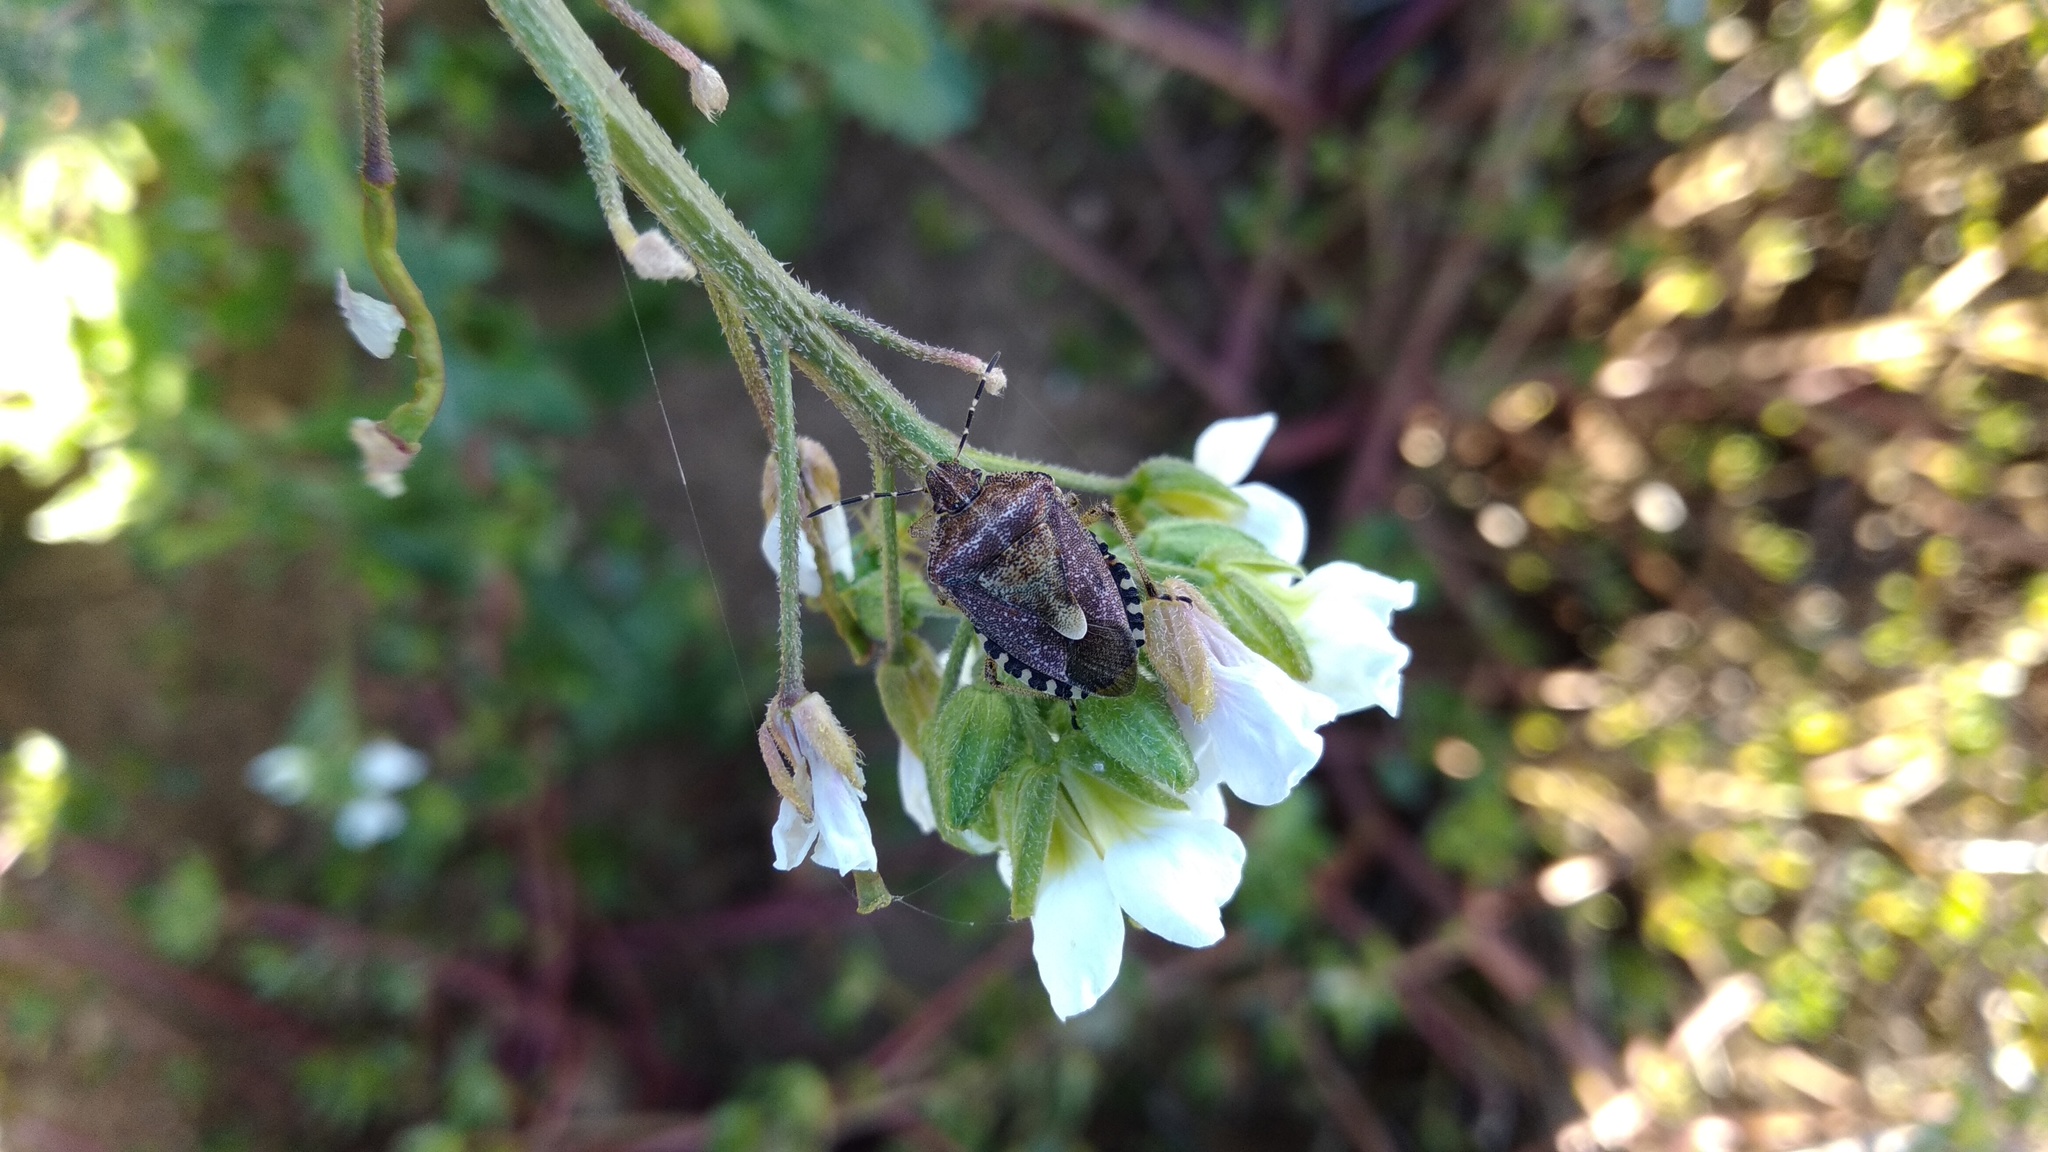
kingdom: Animalia
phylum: Arthropoda
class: Insecta
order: Hemiptera
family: Pentatomidae
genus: Dolycoris
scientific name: Dolycoris baccarum
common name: Sloe bug
